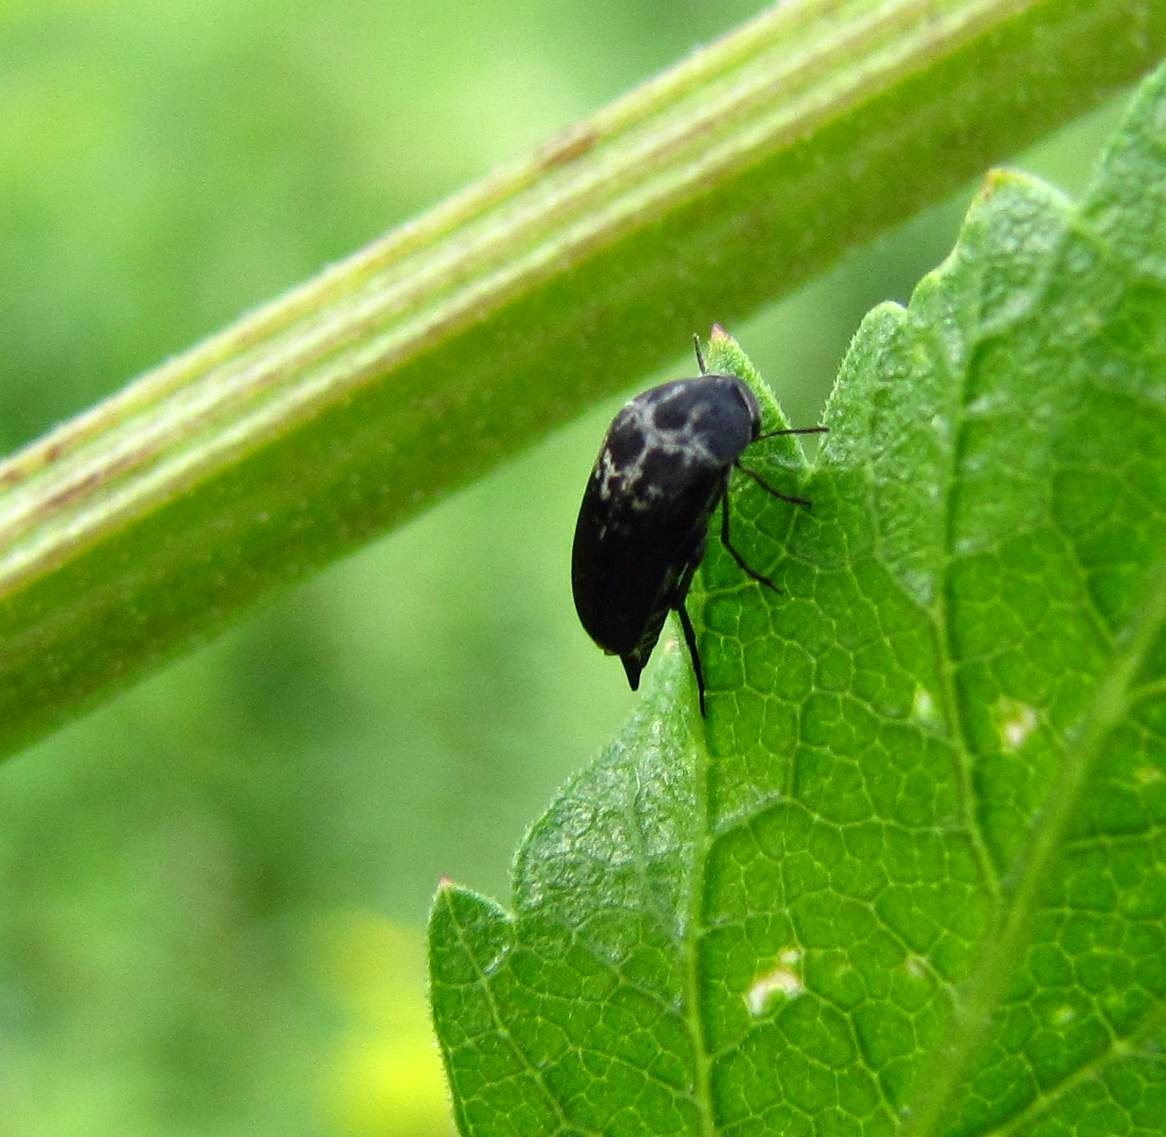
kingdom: Animalia
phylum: Arthropoda
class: Insecta
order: Coleoptera
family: Mordellidae
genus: Mordella
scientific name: Mordella marginata
